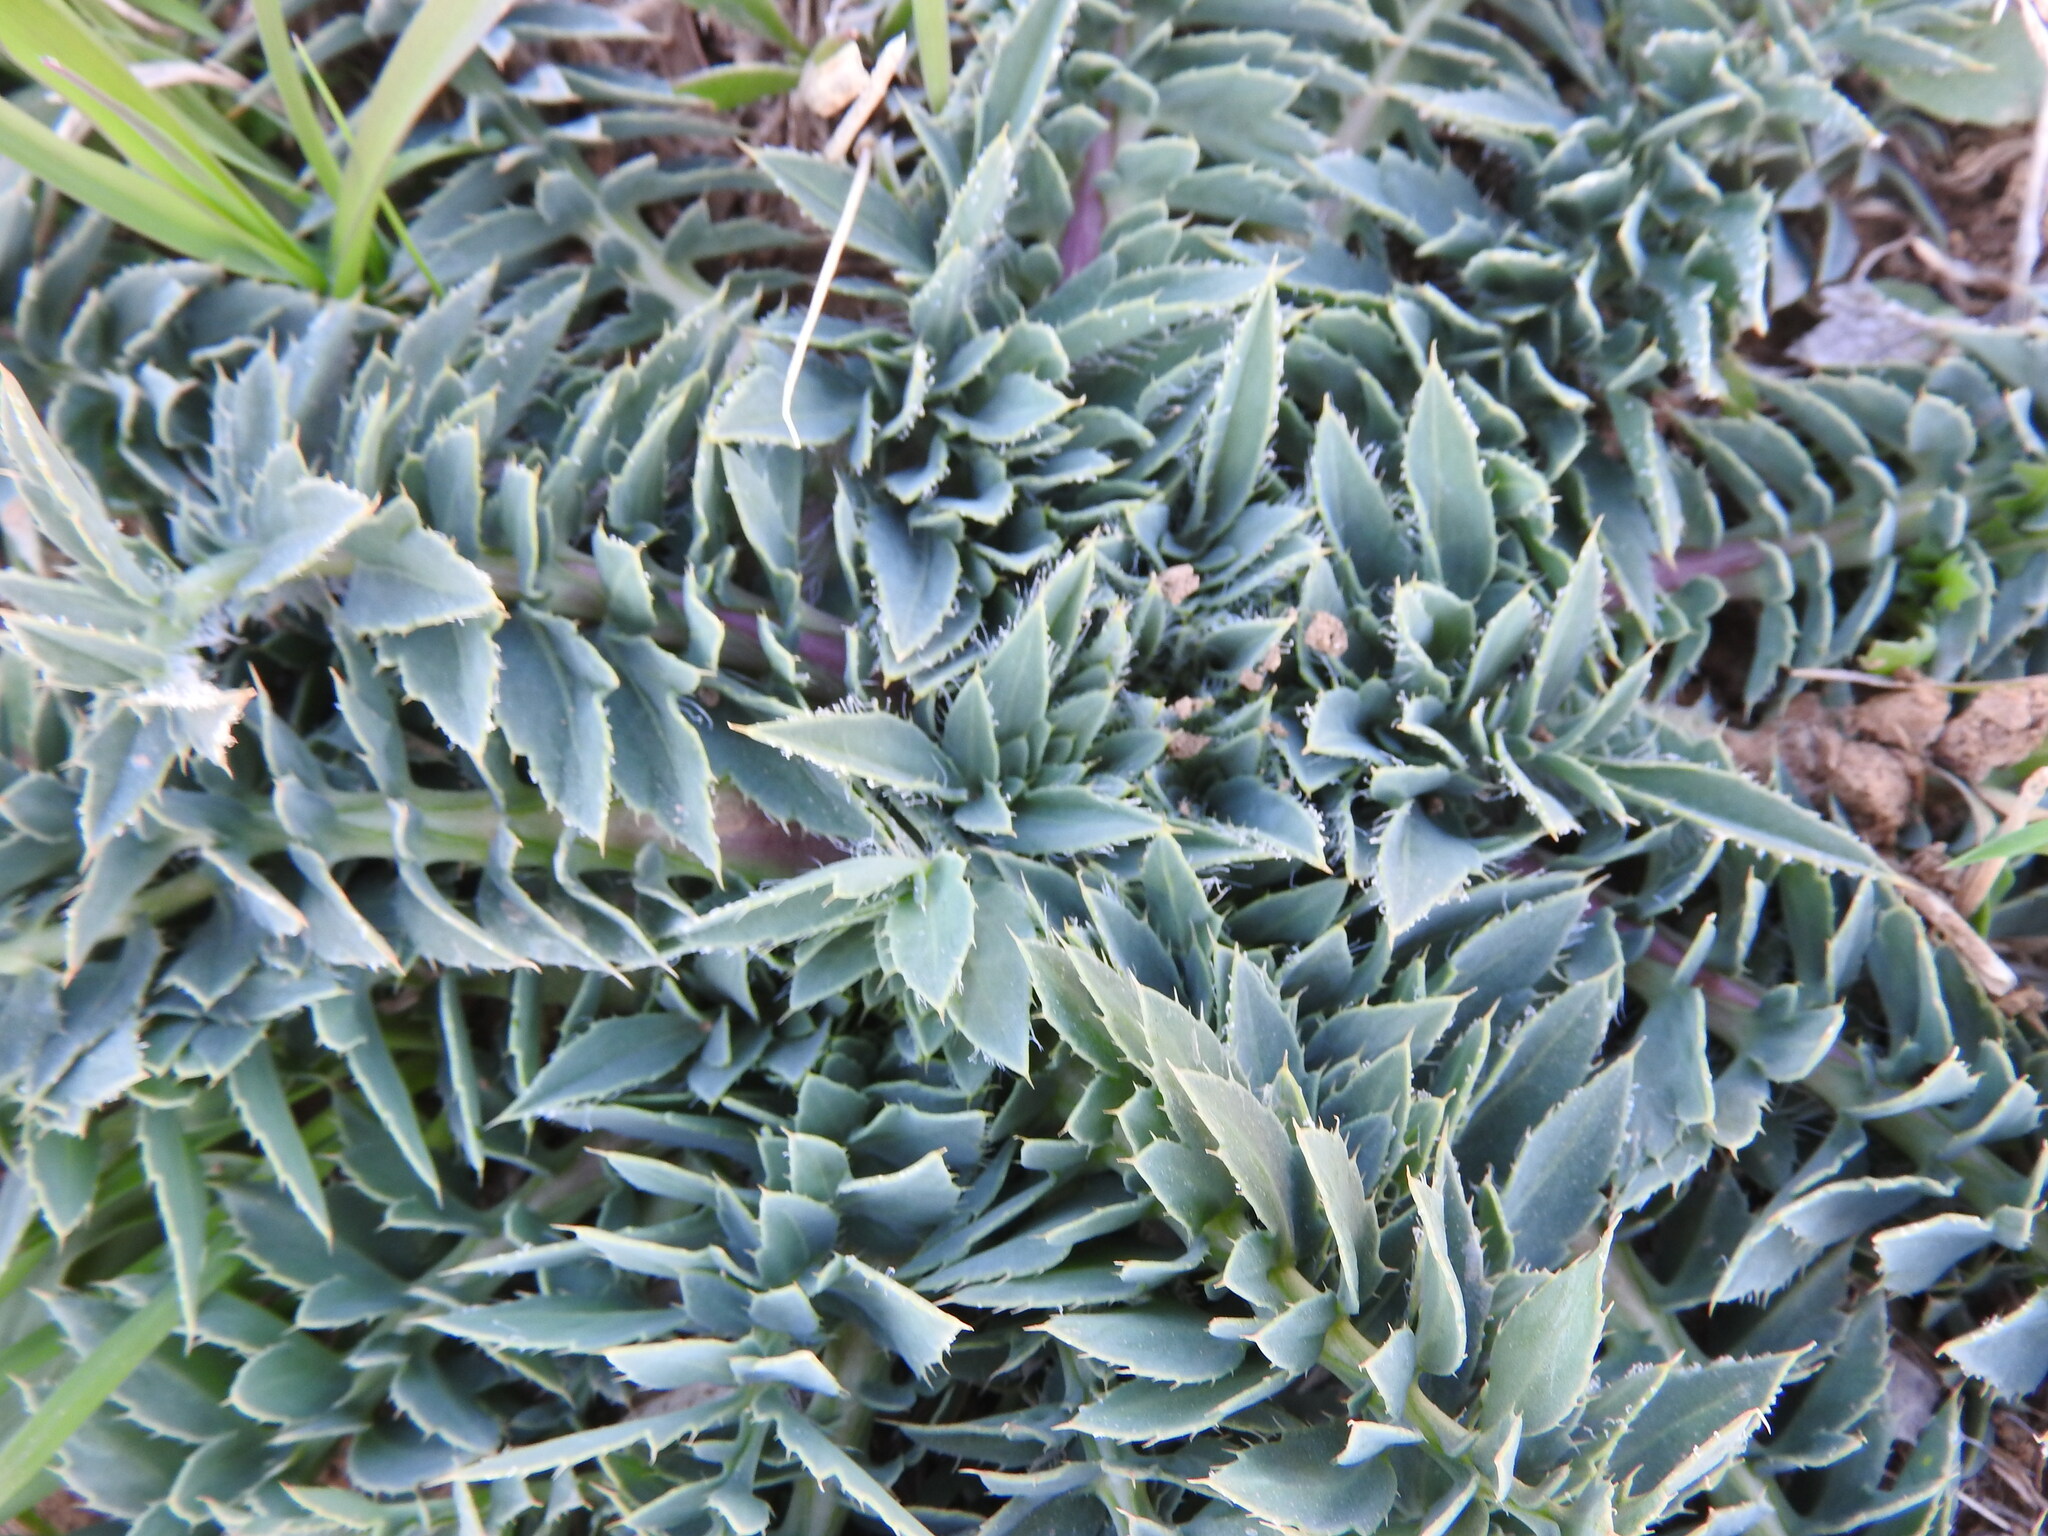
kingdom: Plantae
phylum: Tracheophyta
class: Magnoliopsida
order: Asterales
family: Asteraceae
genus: Carduncellus
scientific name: Carduncellus
